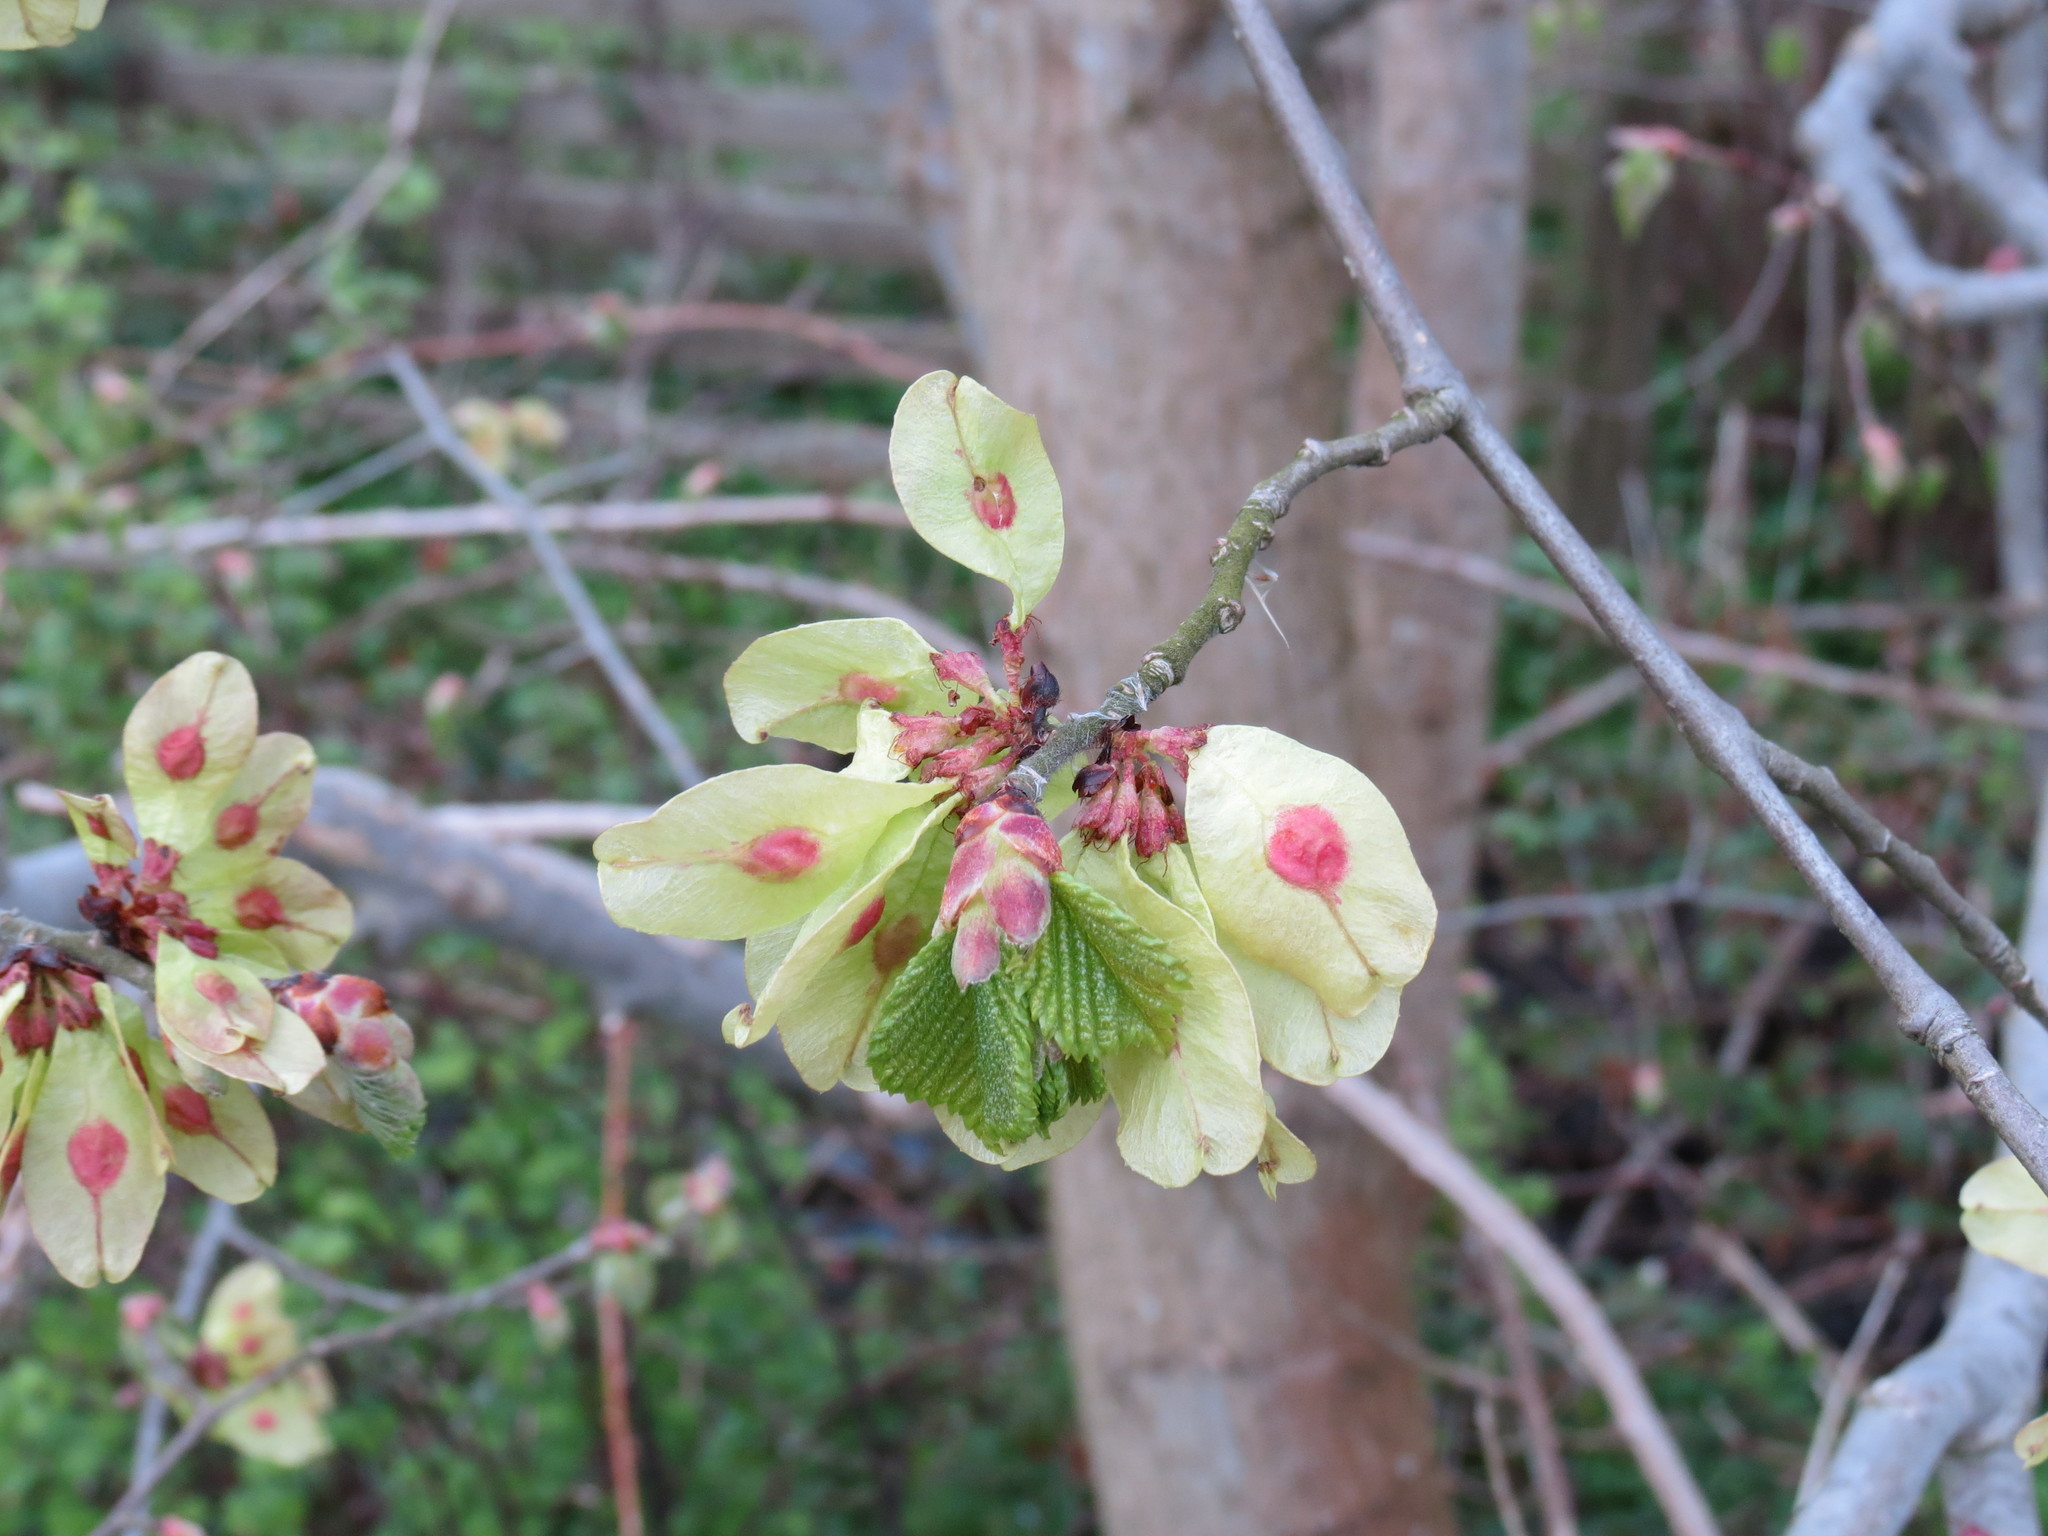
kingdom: Plantae
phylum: Tracheophyta
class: Magnoliopsida
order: Rosales
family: Ulmaceae
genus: Ulmus
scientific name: Ulmus glabra
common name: Wych elm
